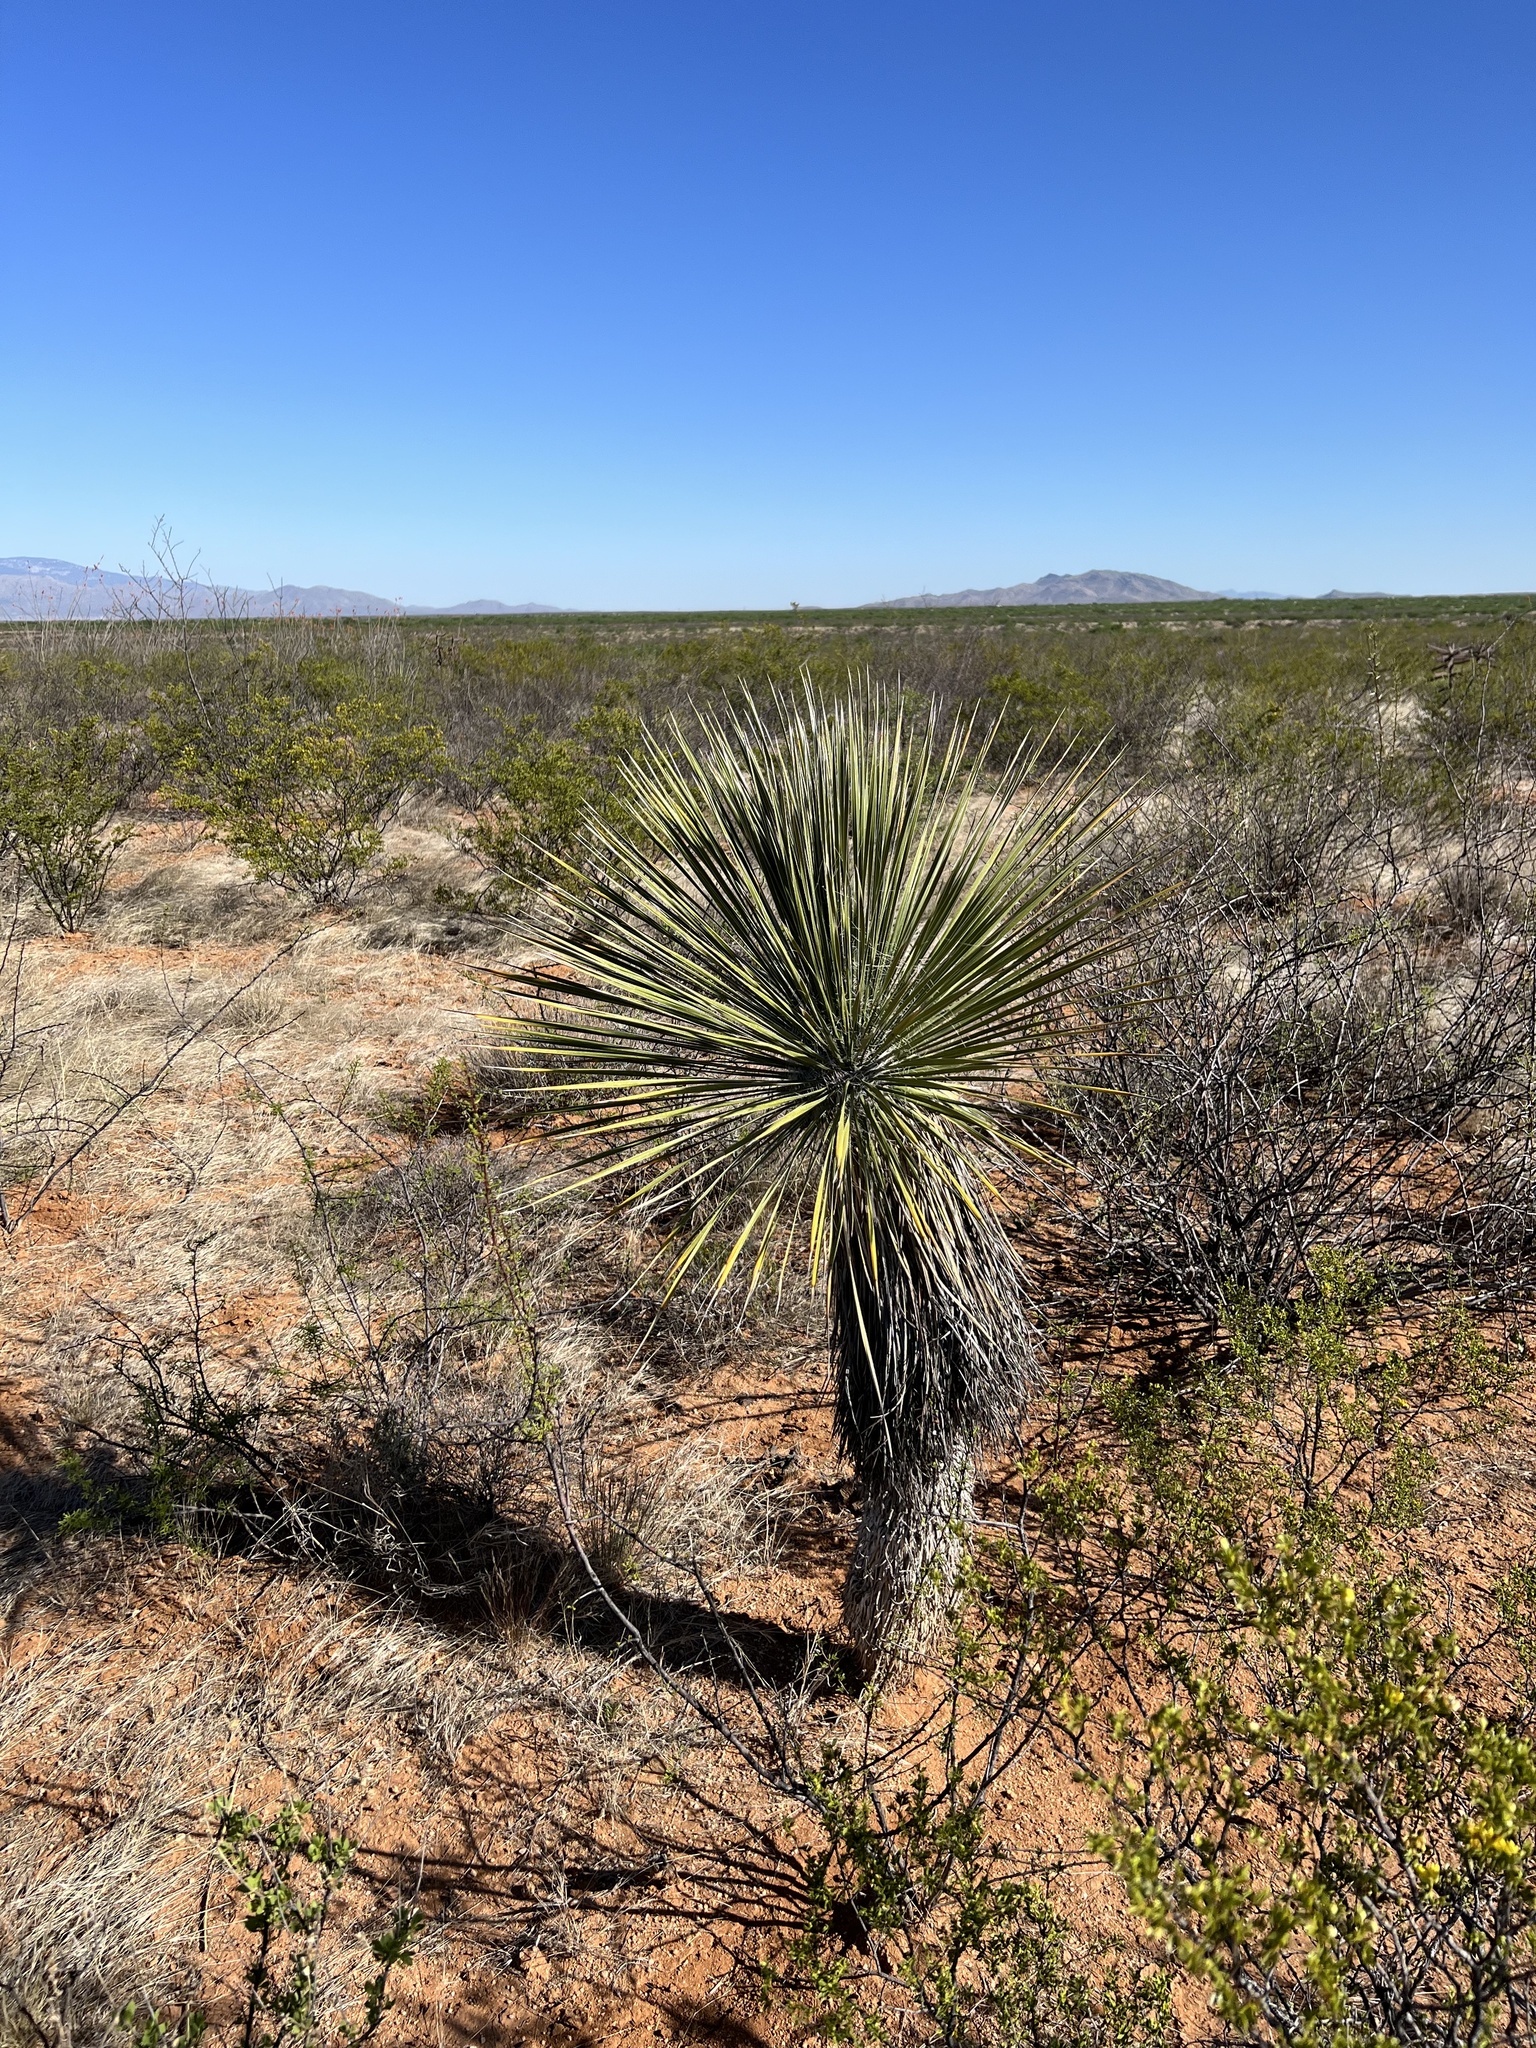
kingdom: Plantae
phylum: Tracheophyta
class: Liliopsida
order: Asparagales
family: Asparagaceae
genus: Yucca
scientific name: Yucca elata
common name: Palmella
